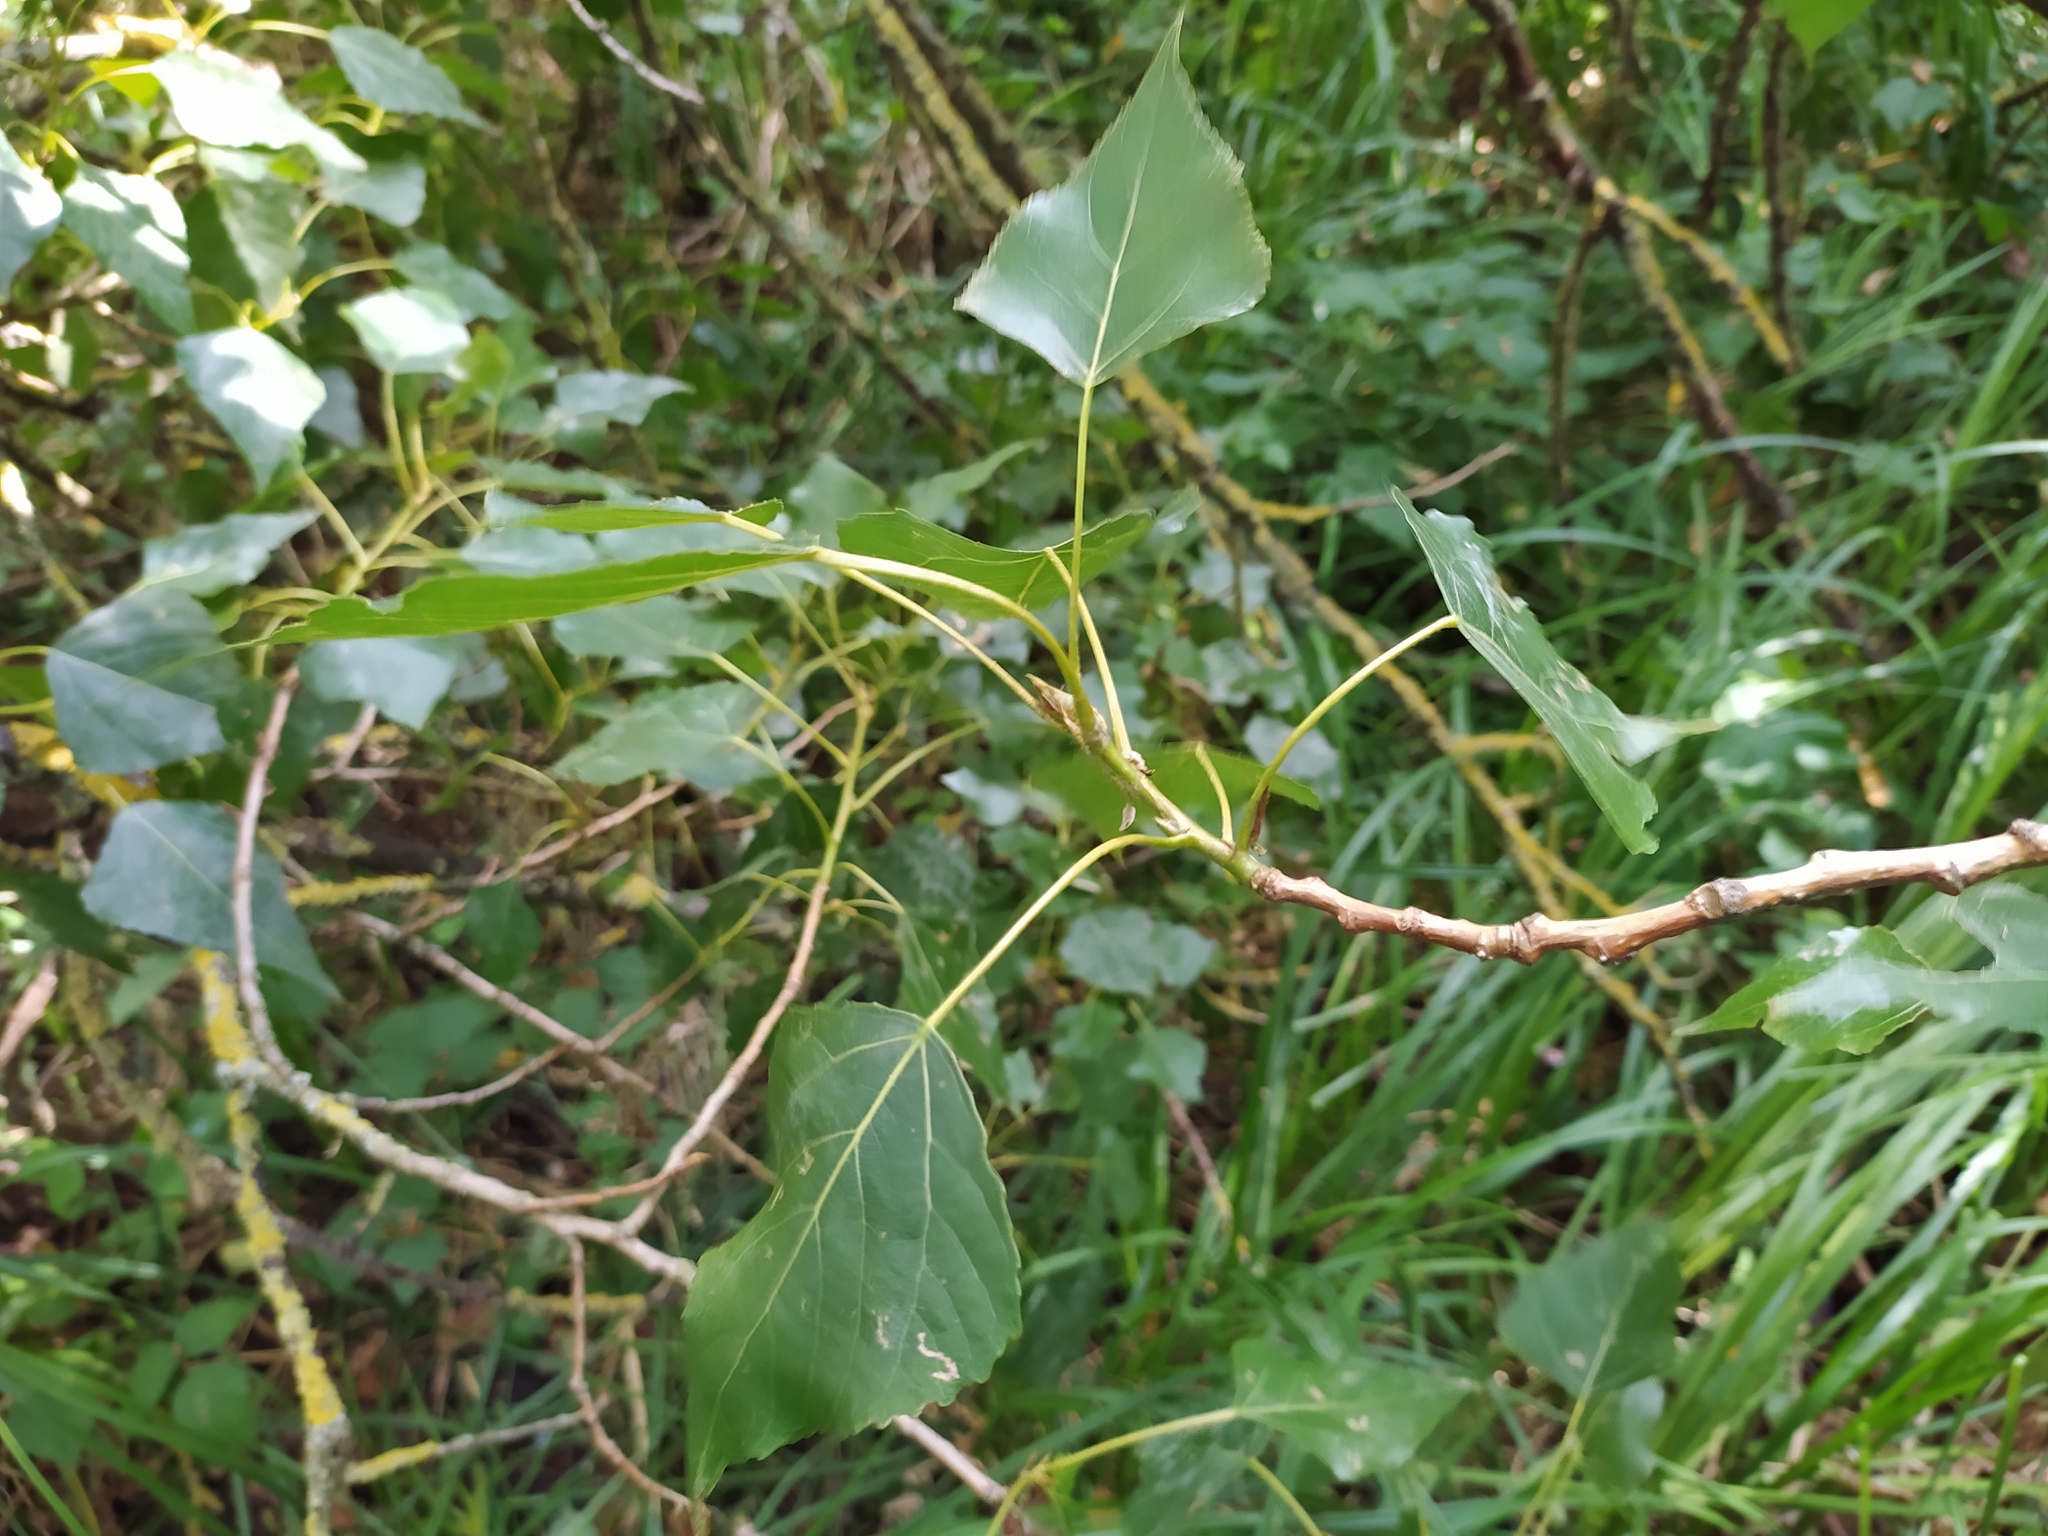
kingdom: Plantae
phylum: Tracheophyta
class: Magnoliopsida
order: Malpighiales
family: Salicaceae
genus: Populus
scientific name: Populus nigra
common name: Black poplar
